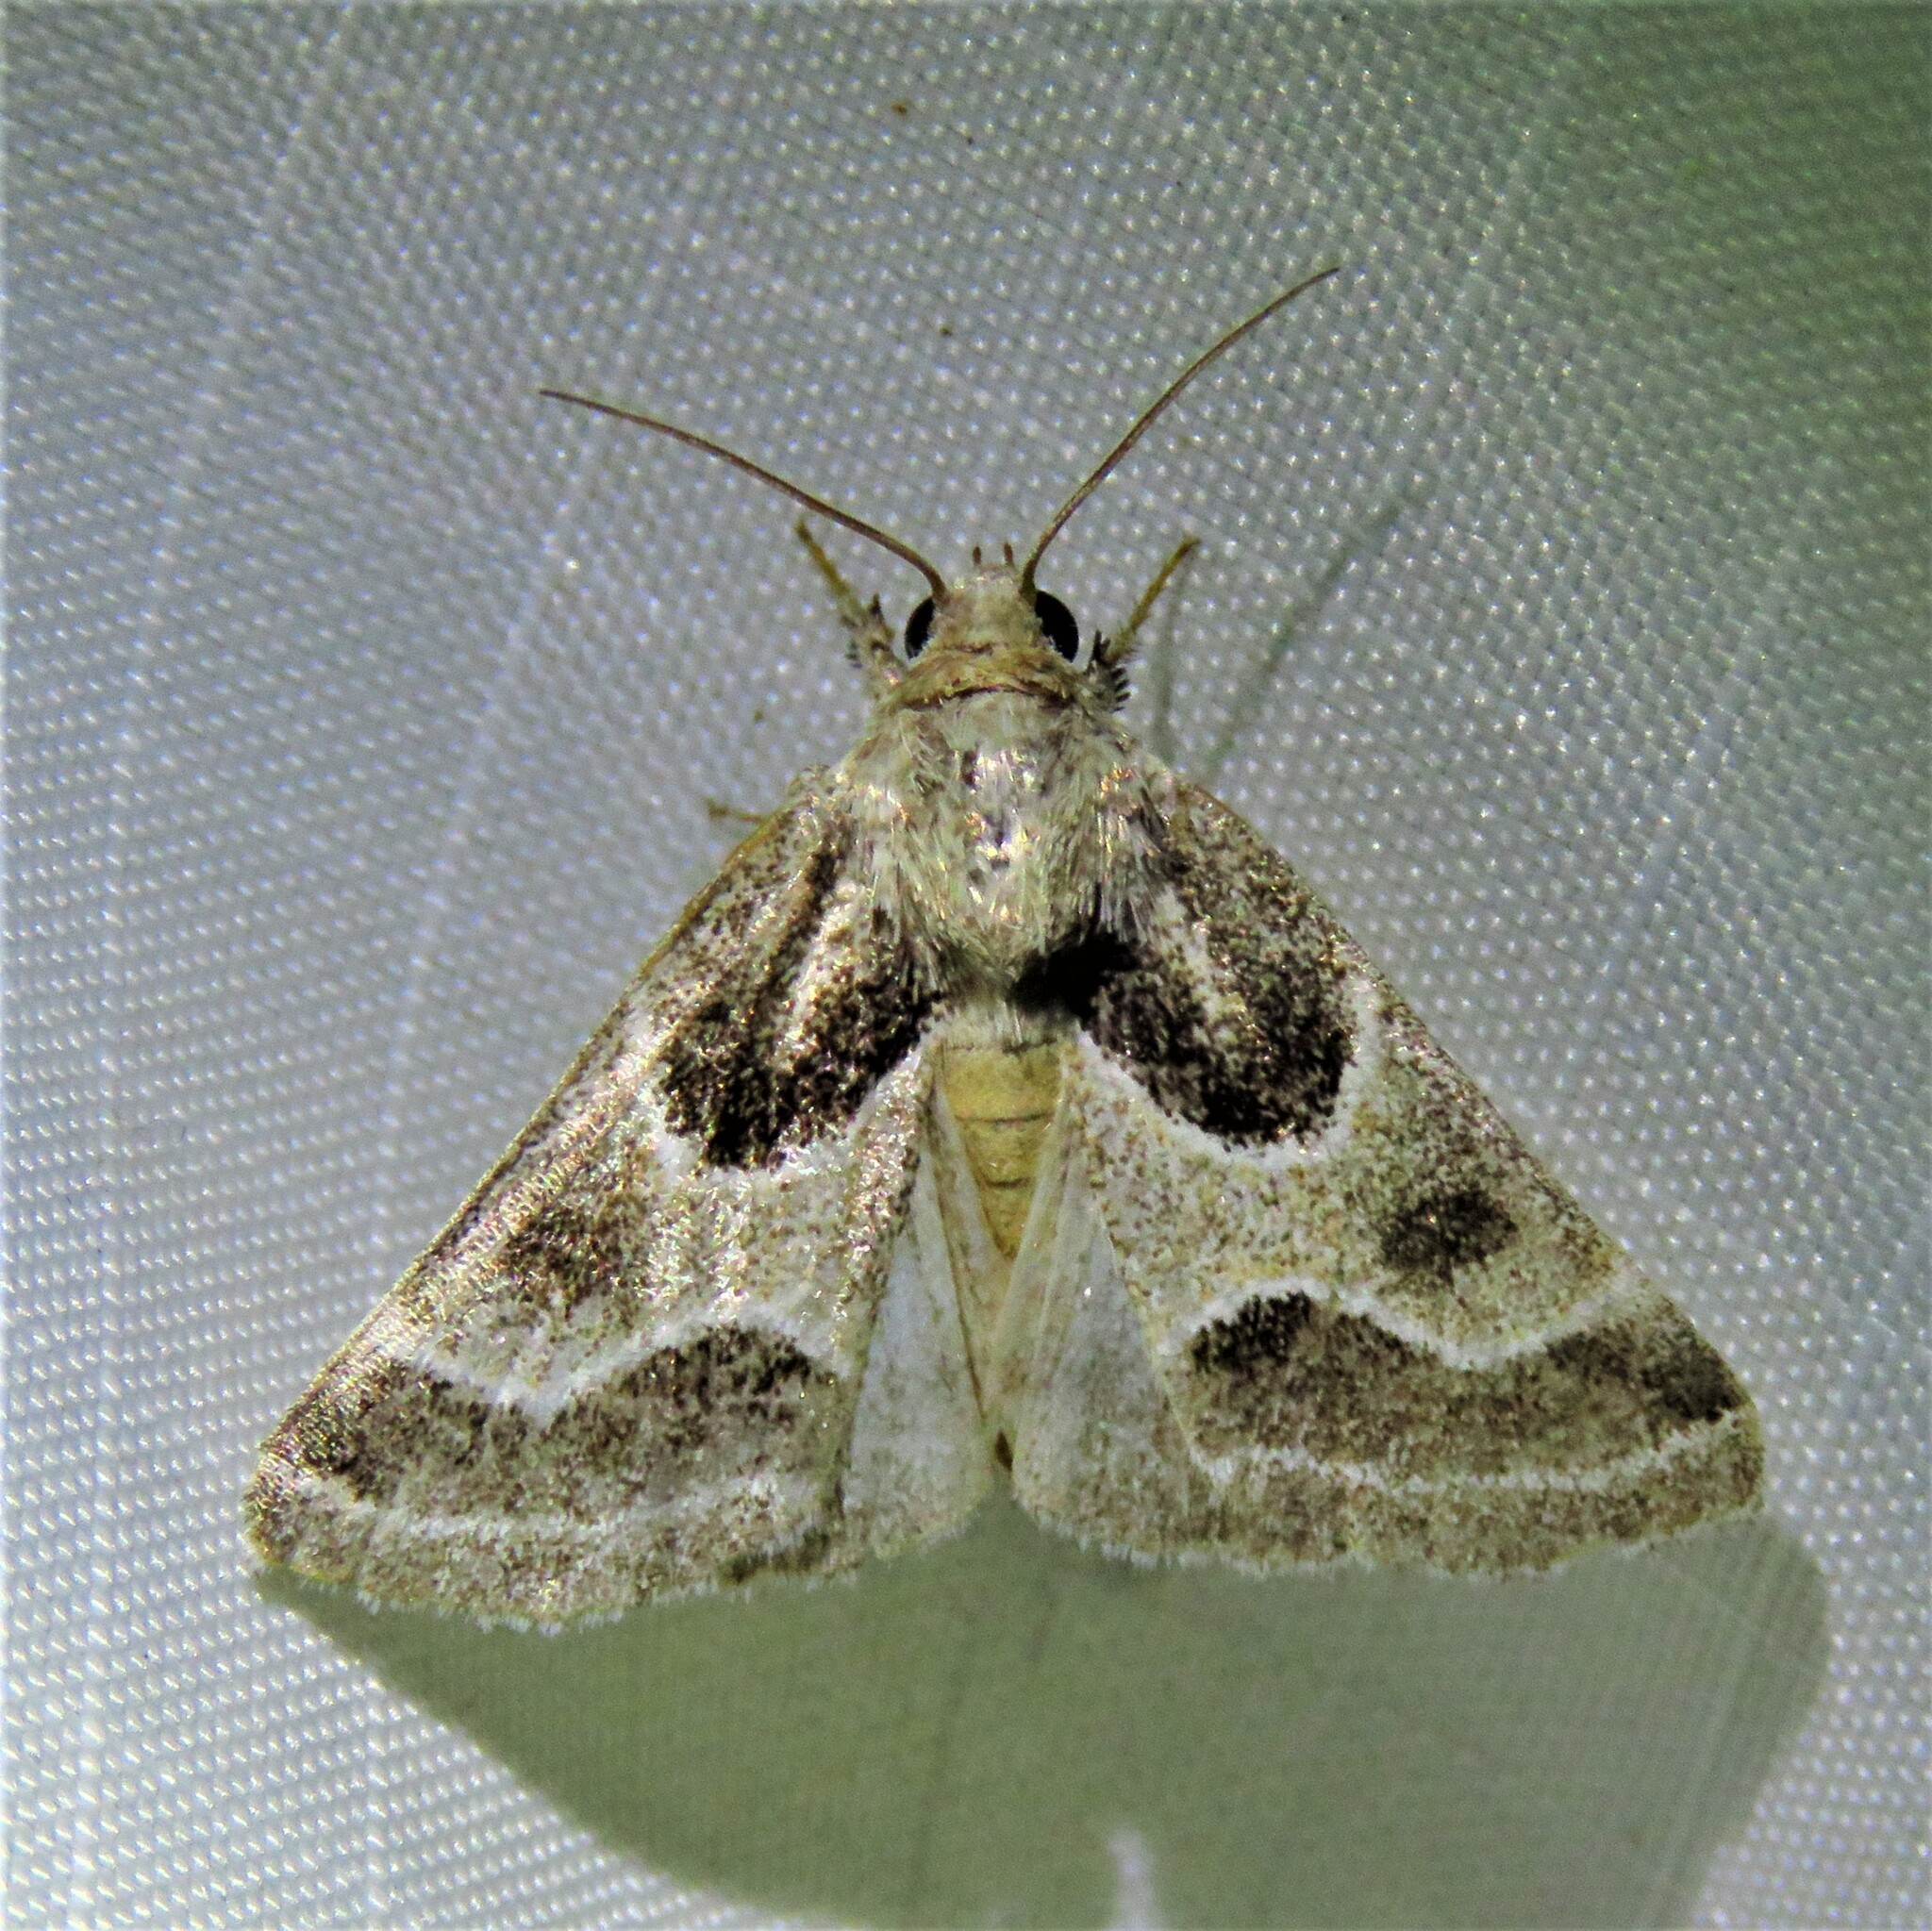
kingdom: Animalia
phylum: Arthropoda
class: Insecta
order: Lepidoptera
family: Noctuidae
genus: Schinia
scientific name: Schinia rivulosa
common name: Scarce meal-moth
